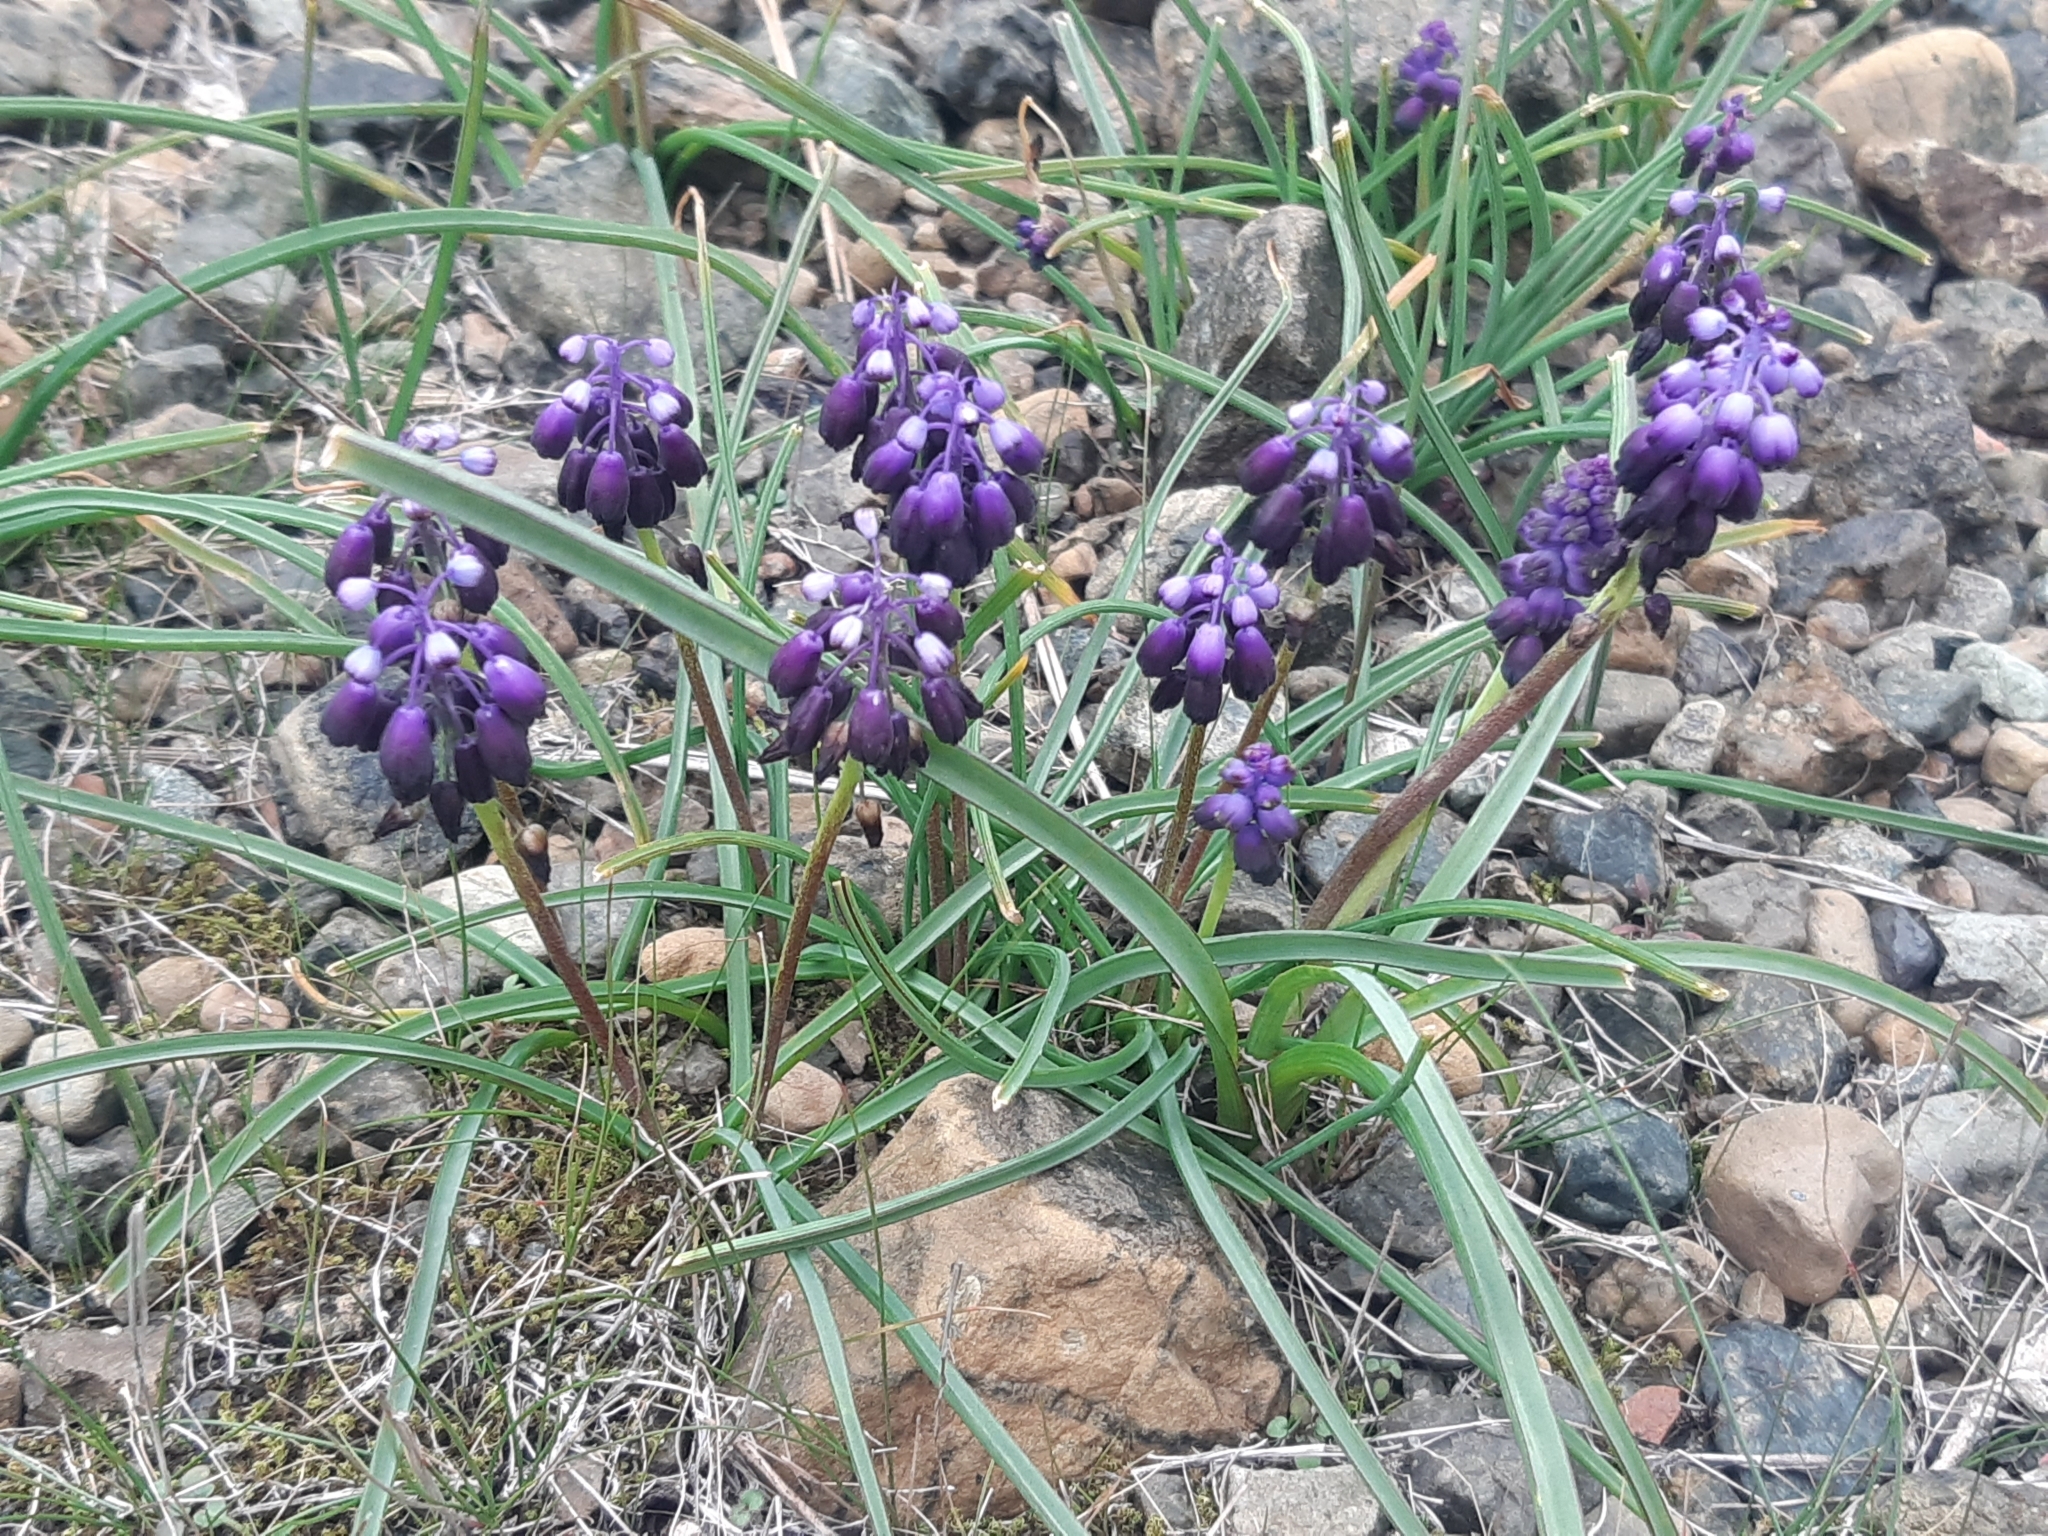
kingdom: Plantae
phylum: Tracheophyta
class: Liliopsida
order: Asparagales
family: Asparagaceae
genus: Muscari
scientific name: Muscari commutatum
